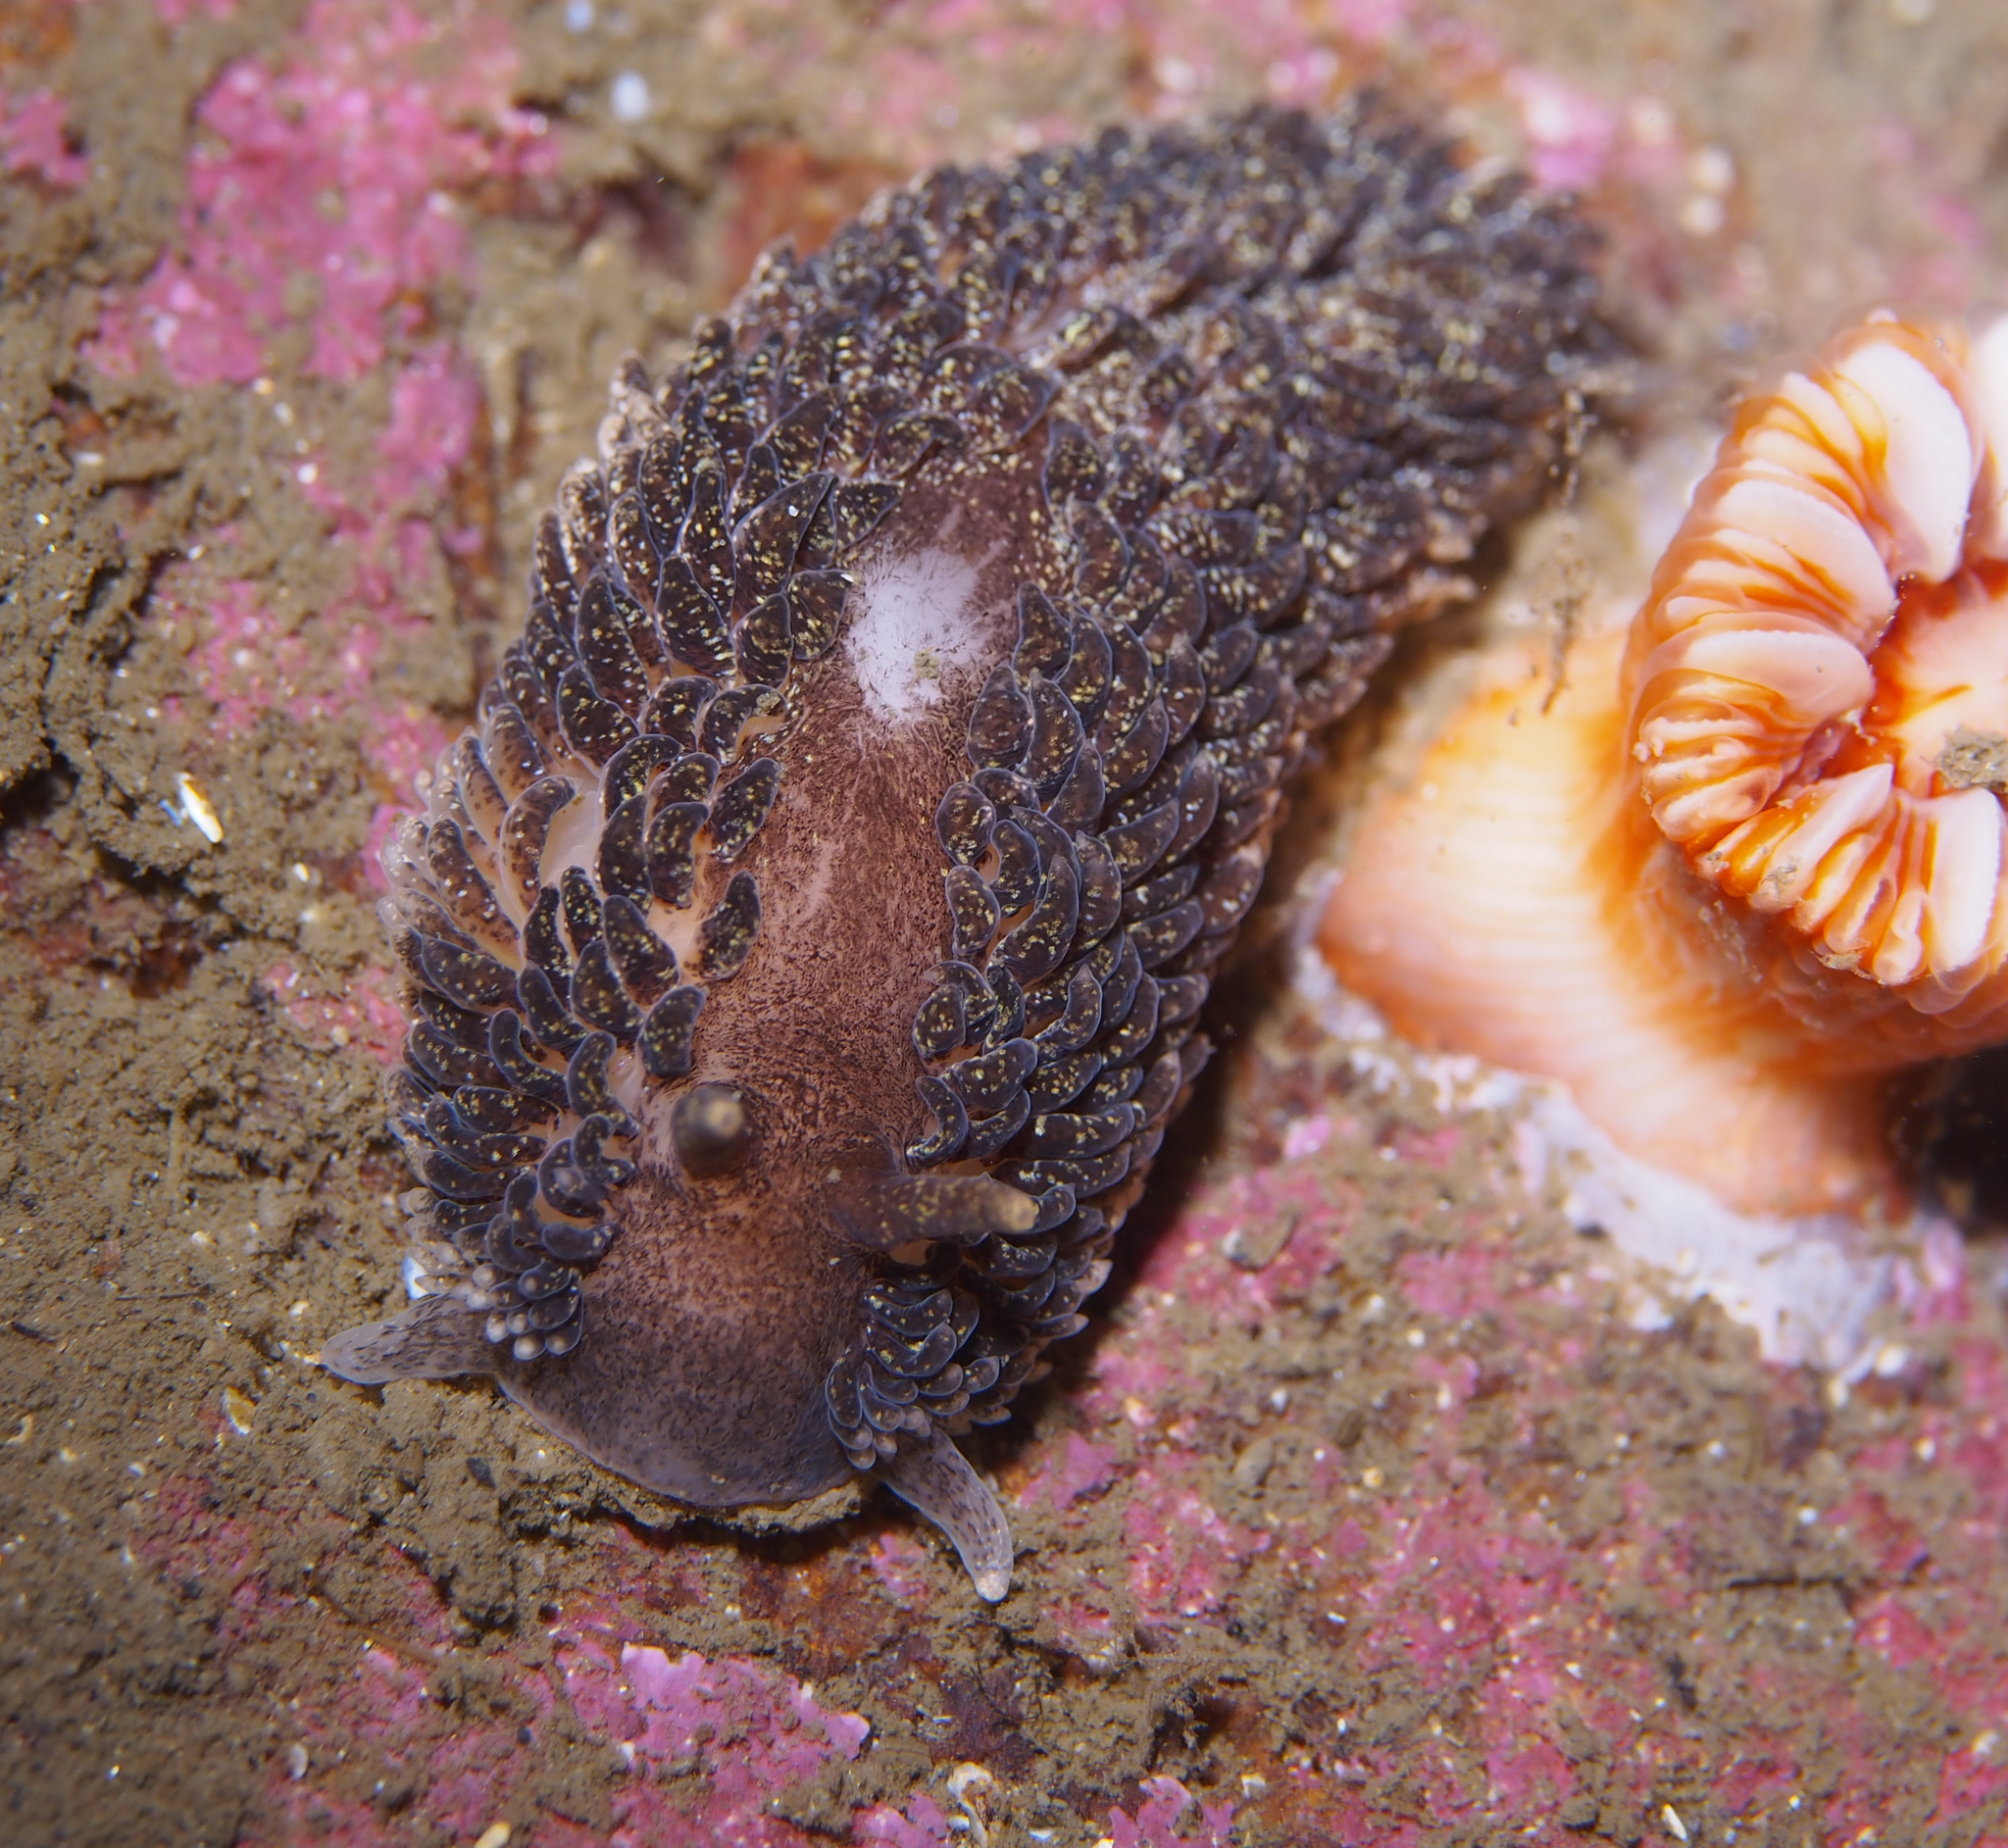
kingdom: Animalia
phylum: Mollusca
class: Gastropoda
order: Nudibranchia
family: Aeolidiidae
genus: Aeolidia
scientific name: Aeolidia papillosa
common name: Common grey sea slug
